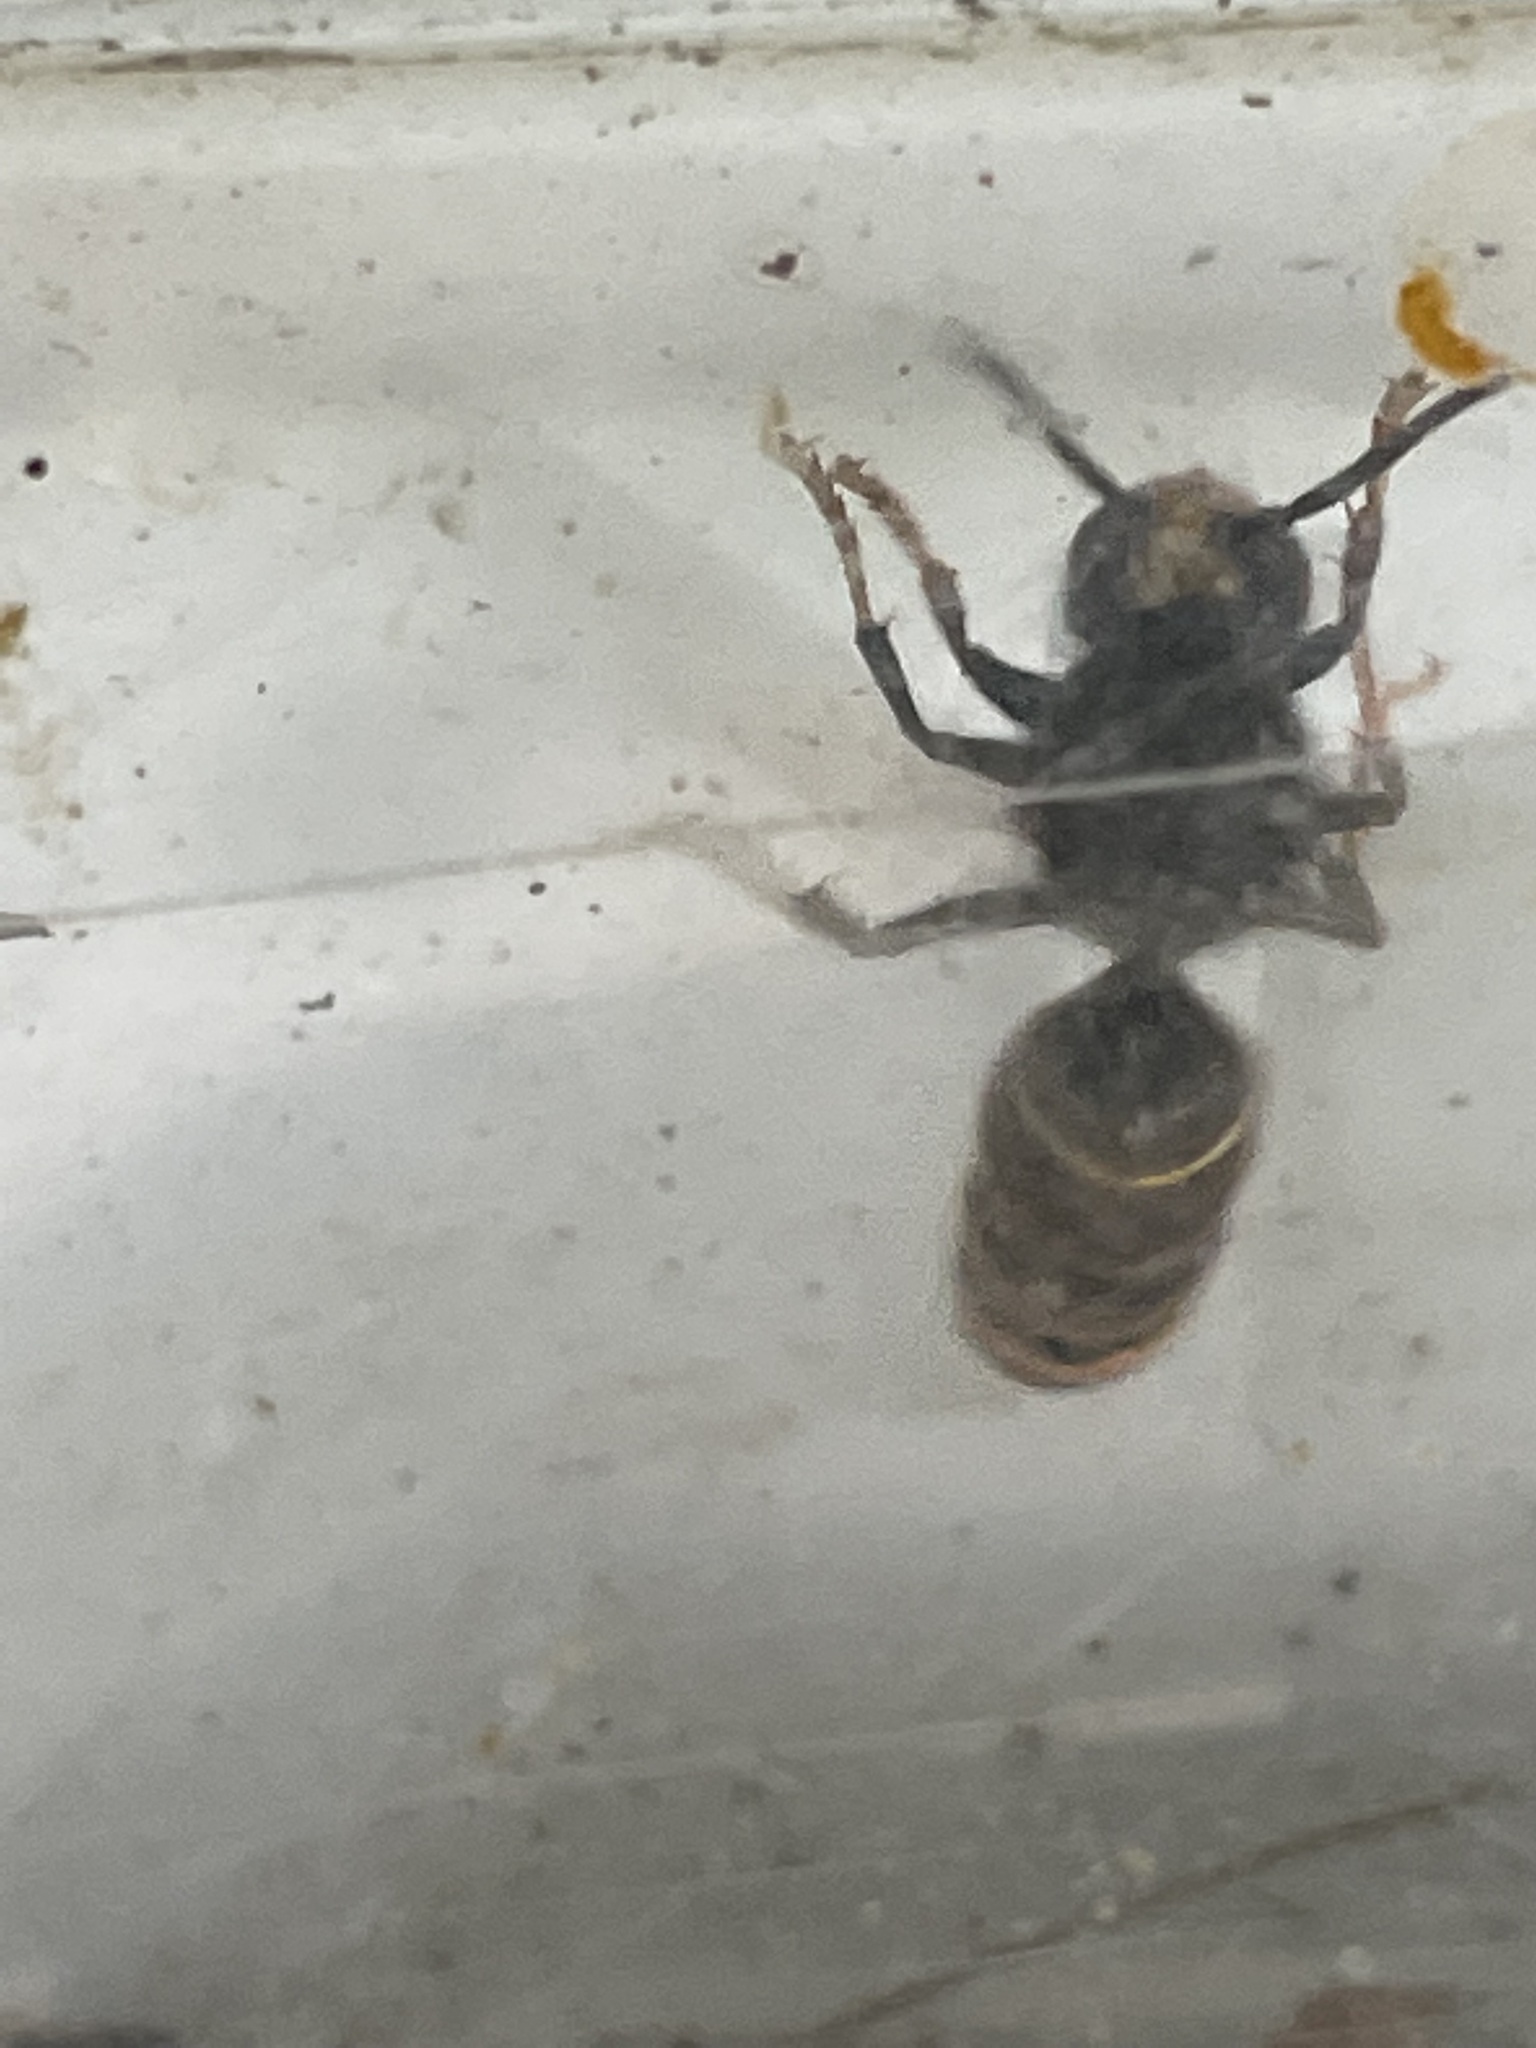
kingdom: Animalia
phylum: Arthropoda
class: Insecta
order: Hymenoptera
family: Vespidae
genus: Vespa
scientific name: Vespa velutina
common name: Asian hornet
